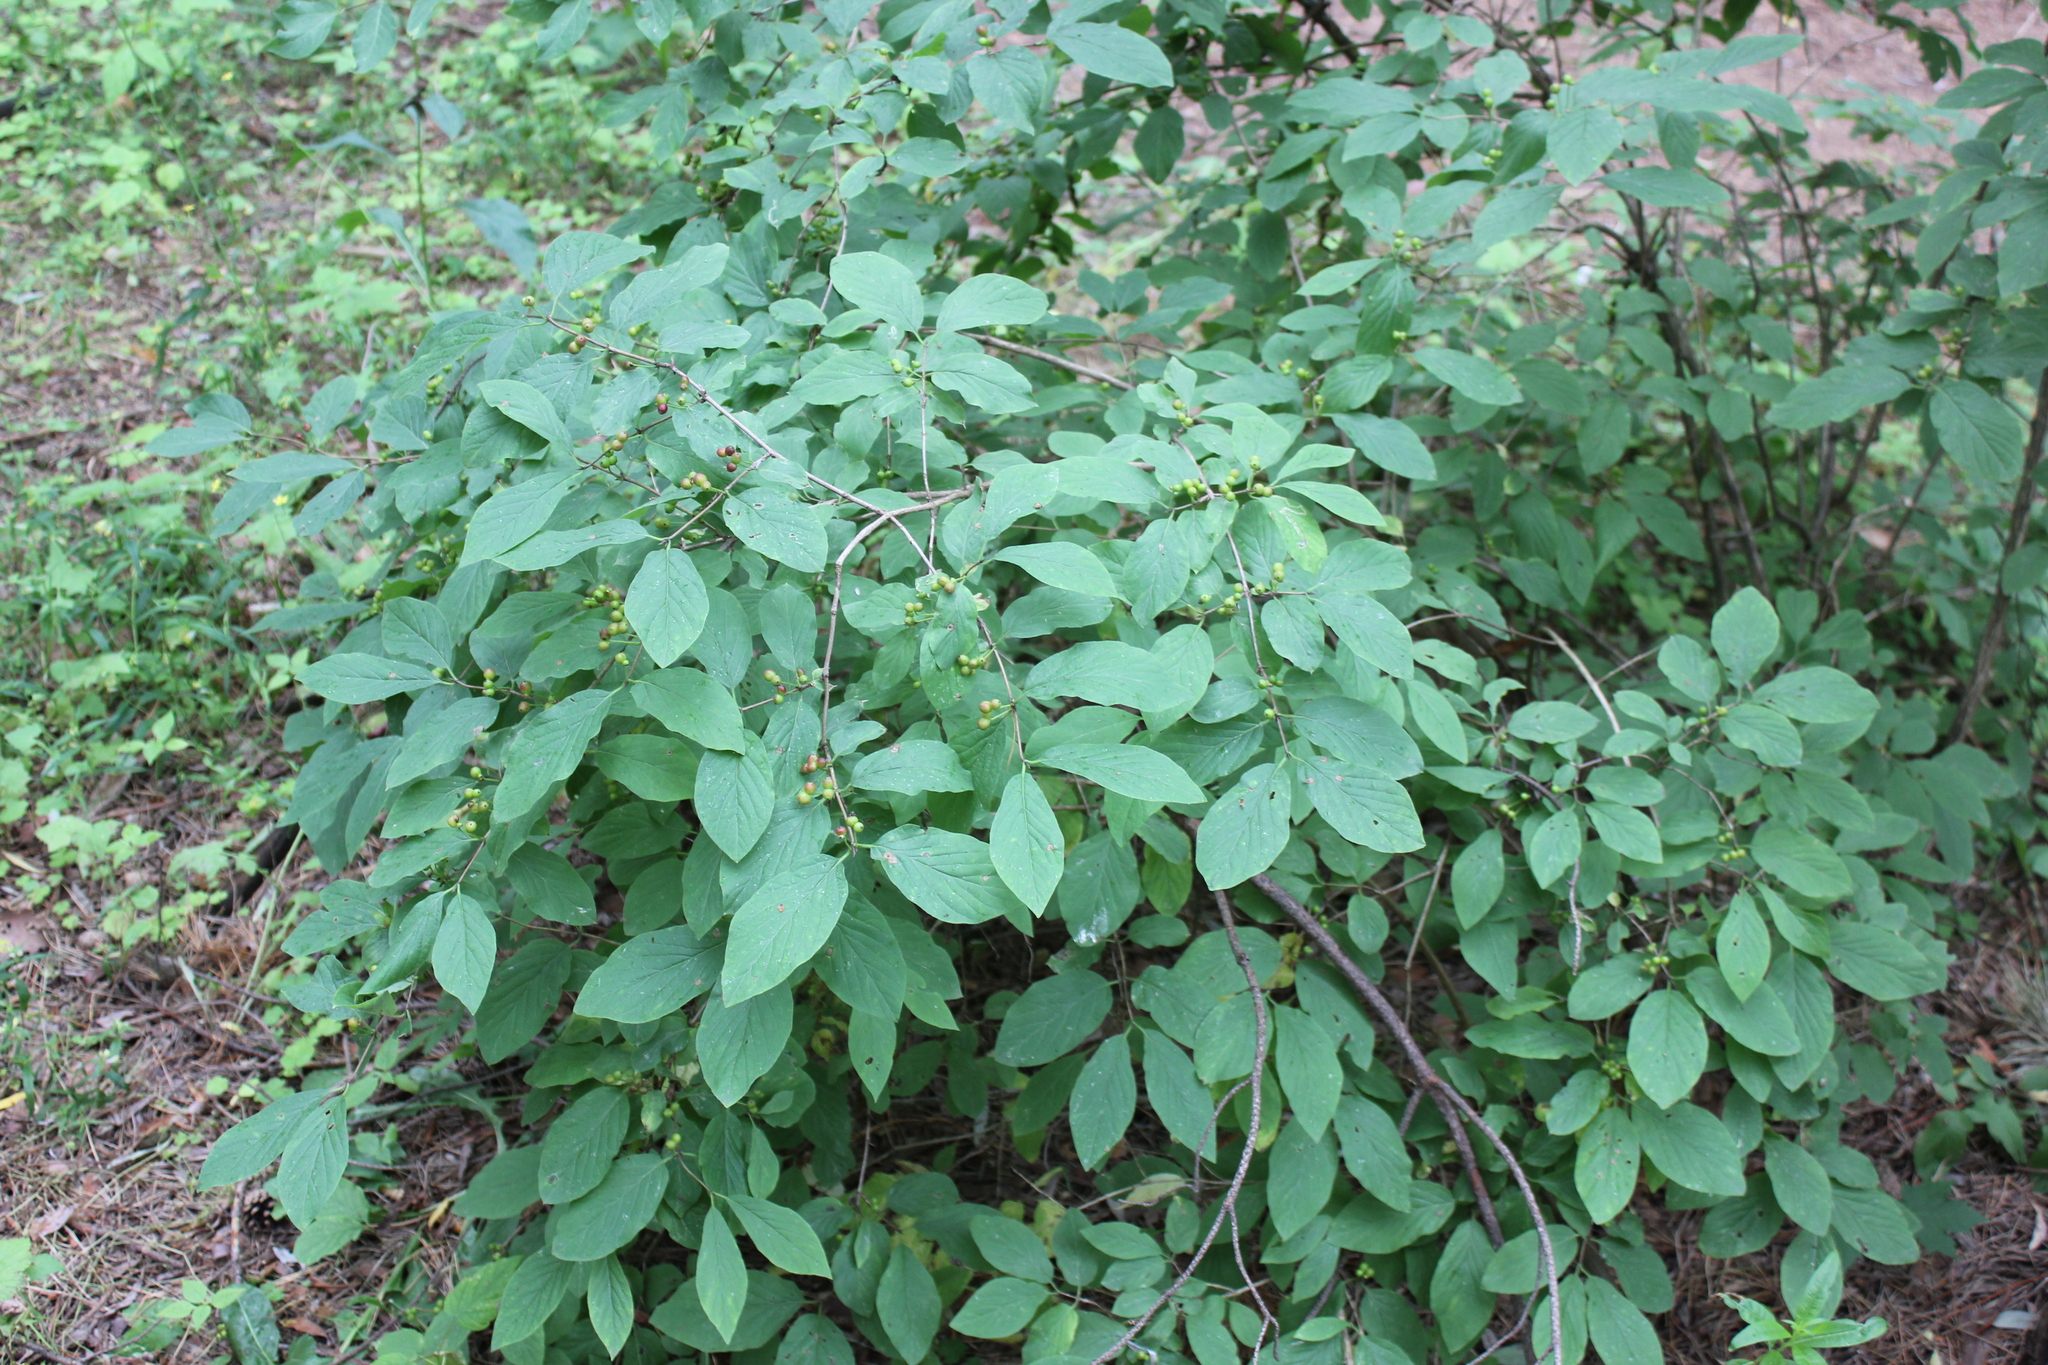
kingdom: Plantae
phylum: Tracheophyta
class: Magnoliopsida
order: Dipsacales
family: Caprifoliaceae
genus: Lonicera
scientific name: Lonicera xylosteum
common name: Fly honeysuckle
